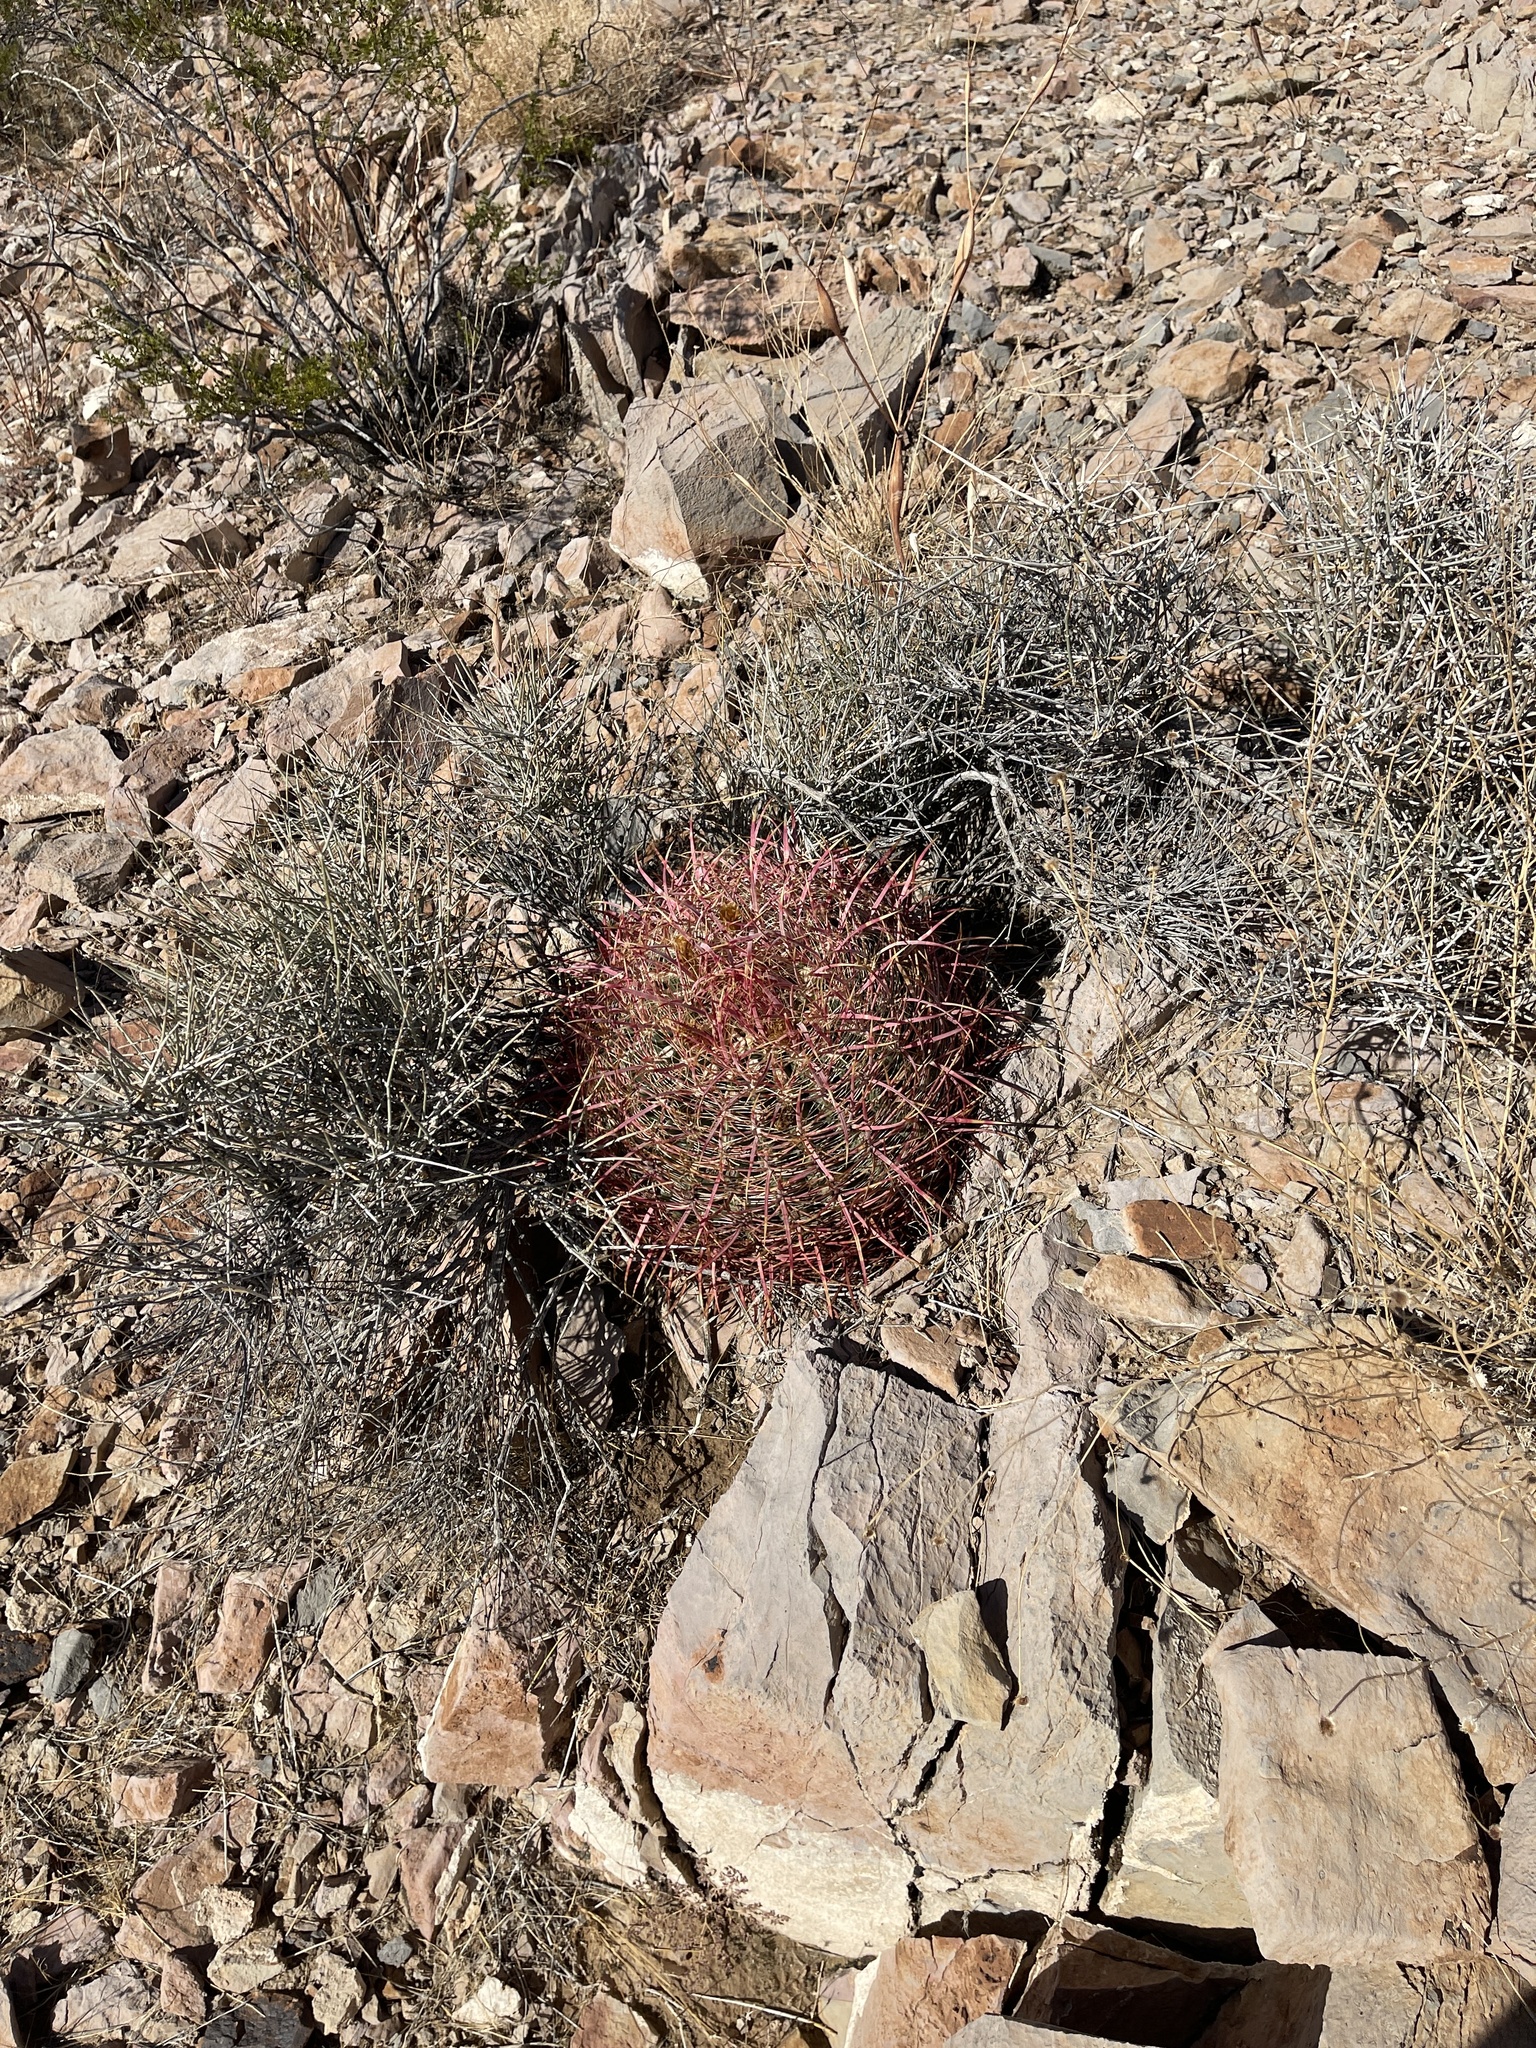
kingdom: Plantae
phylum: Tracheophyta
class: Magnoliopsida
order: Caryophyllales
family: Cactaceae
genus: Ferocactus
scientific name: Ferocactus cylindraceus
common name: California barrel cactus
